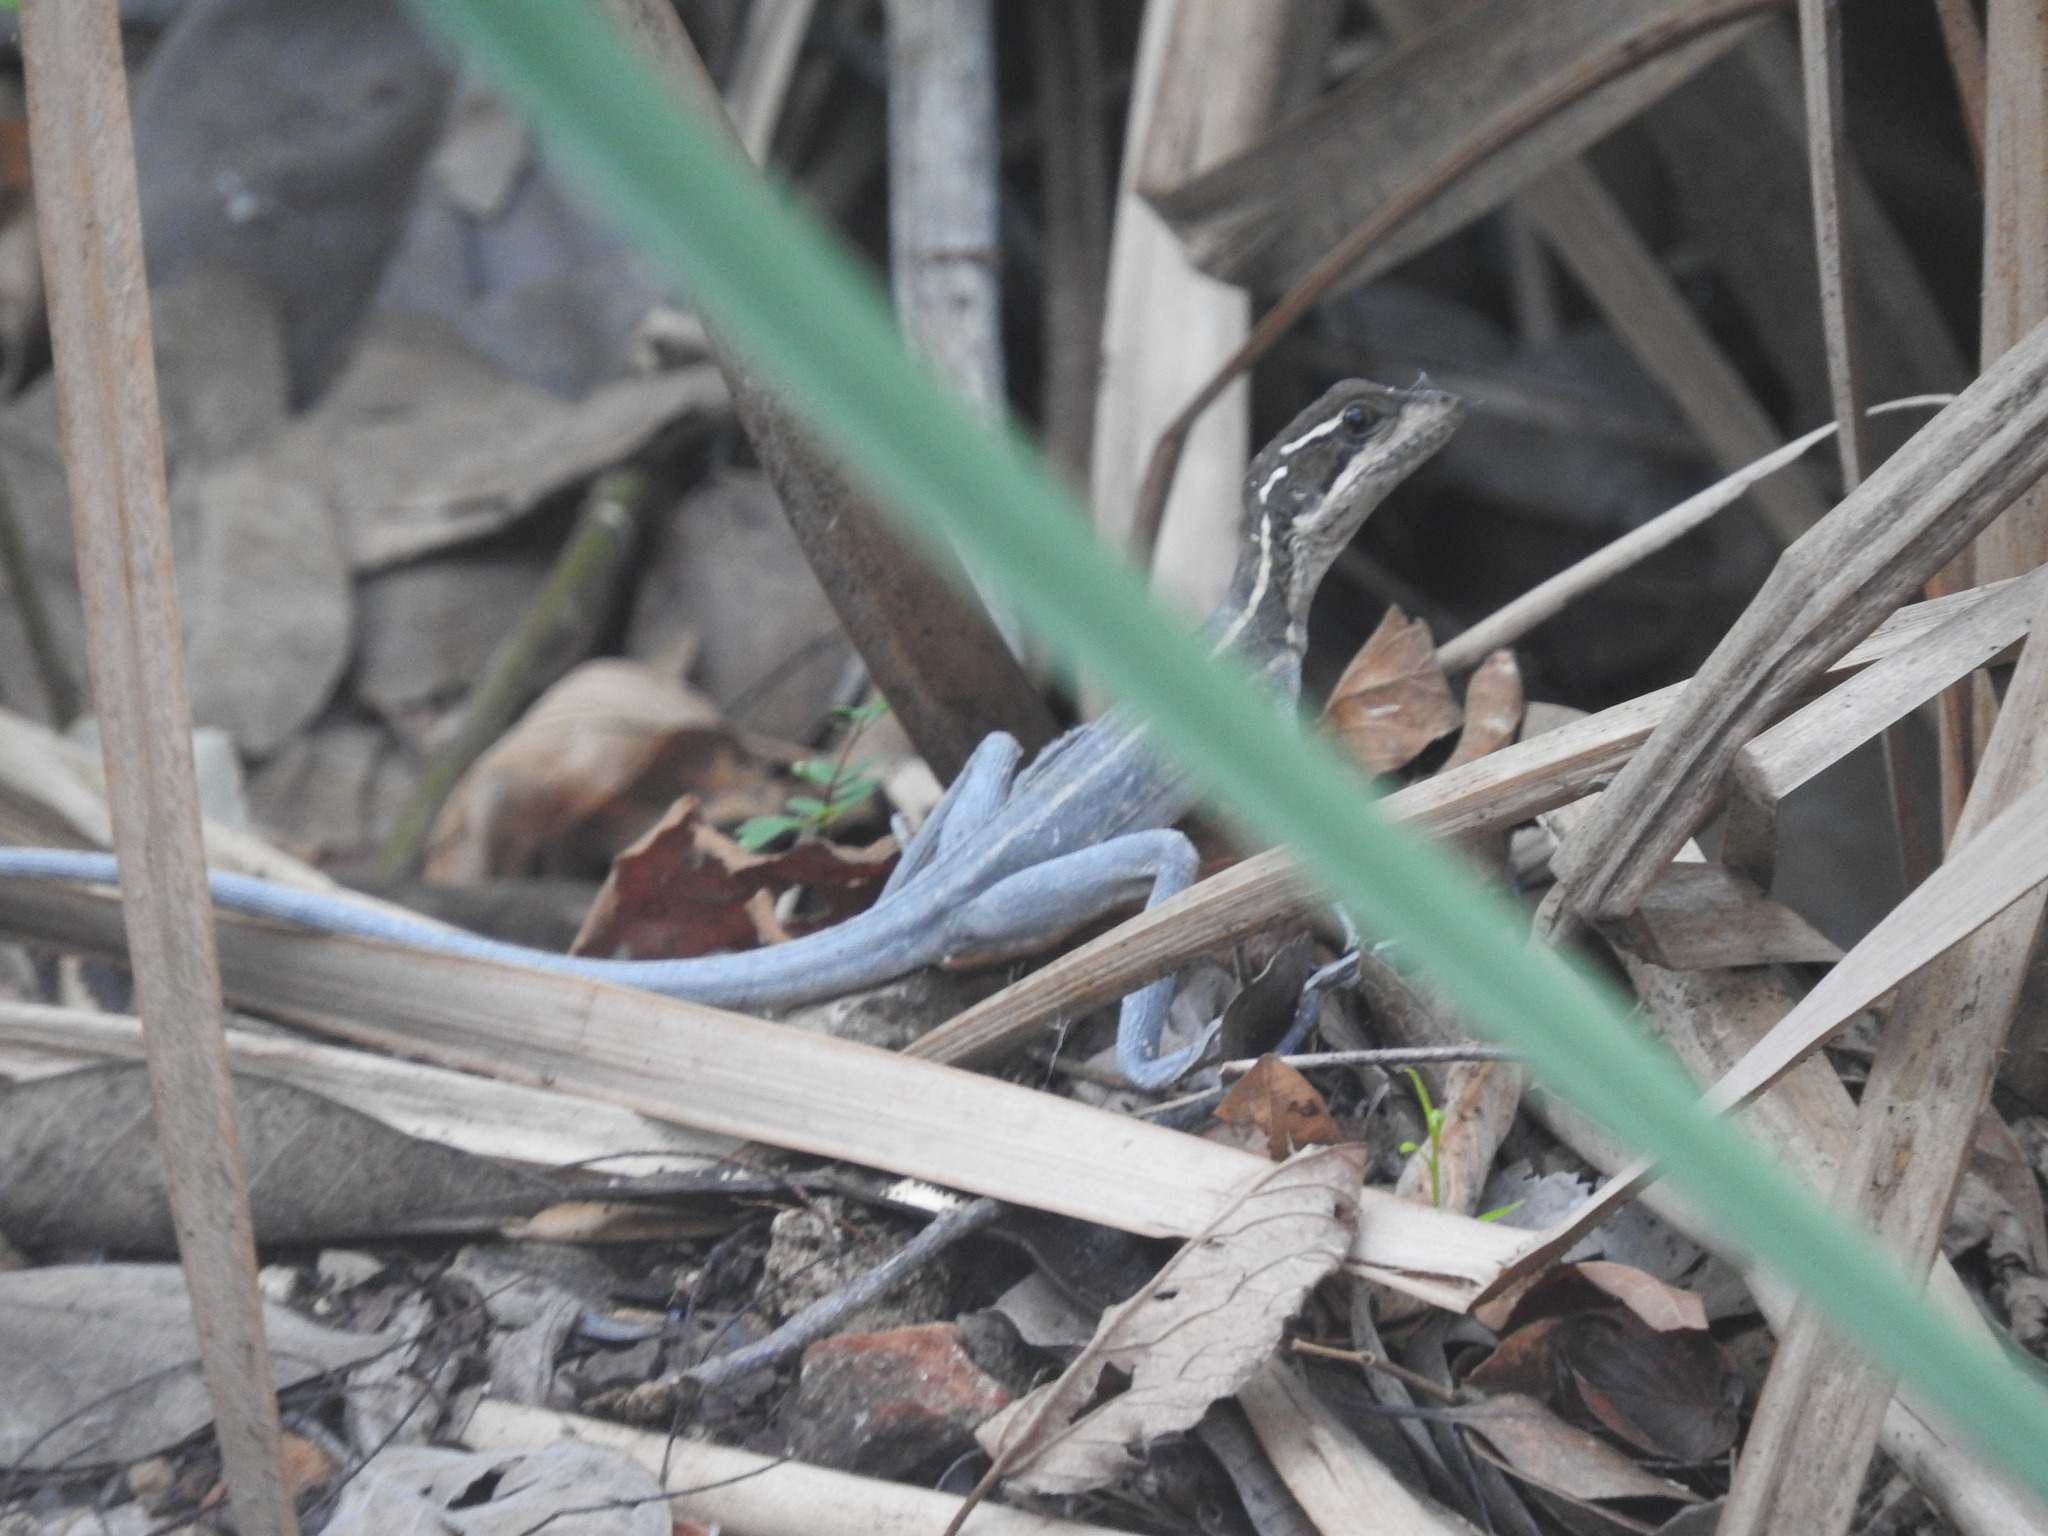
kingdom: Animalia
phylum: Chordata
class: Squamata
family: Corytophanidae
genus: Basiliscus
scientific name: Basiliscus vittatus
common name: Brown basilisk
